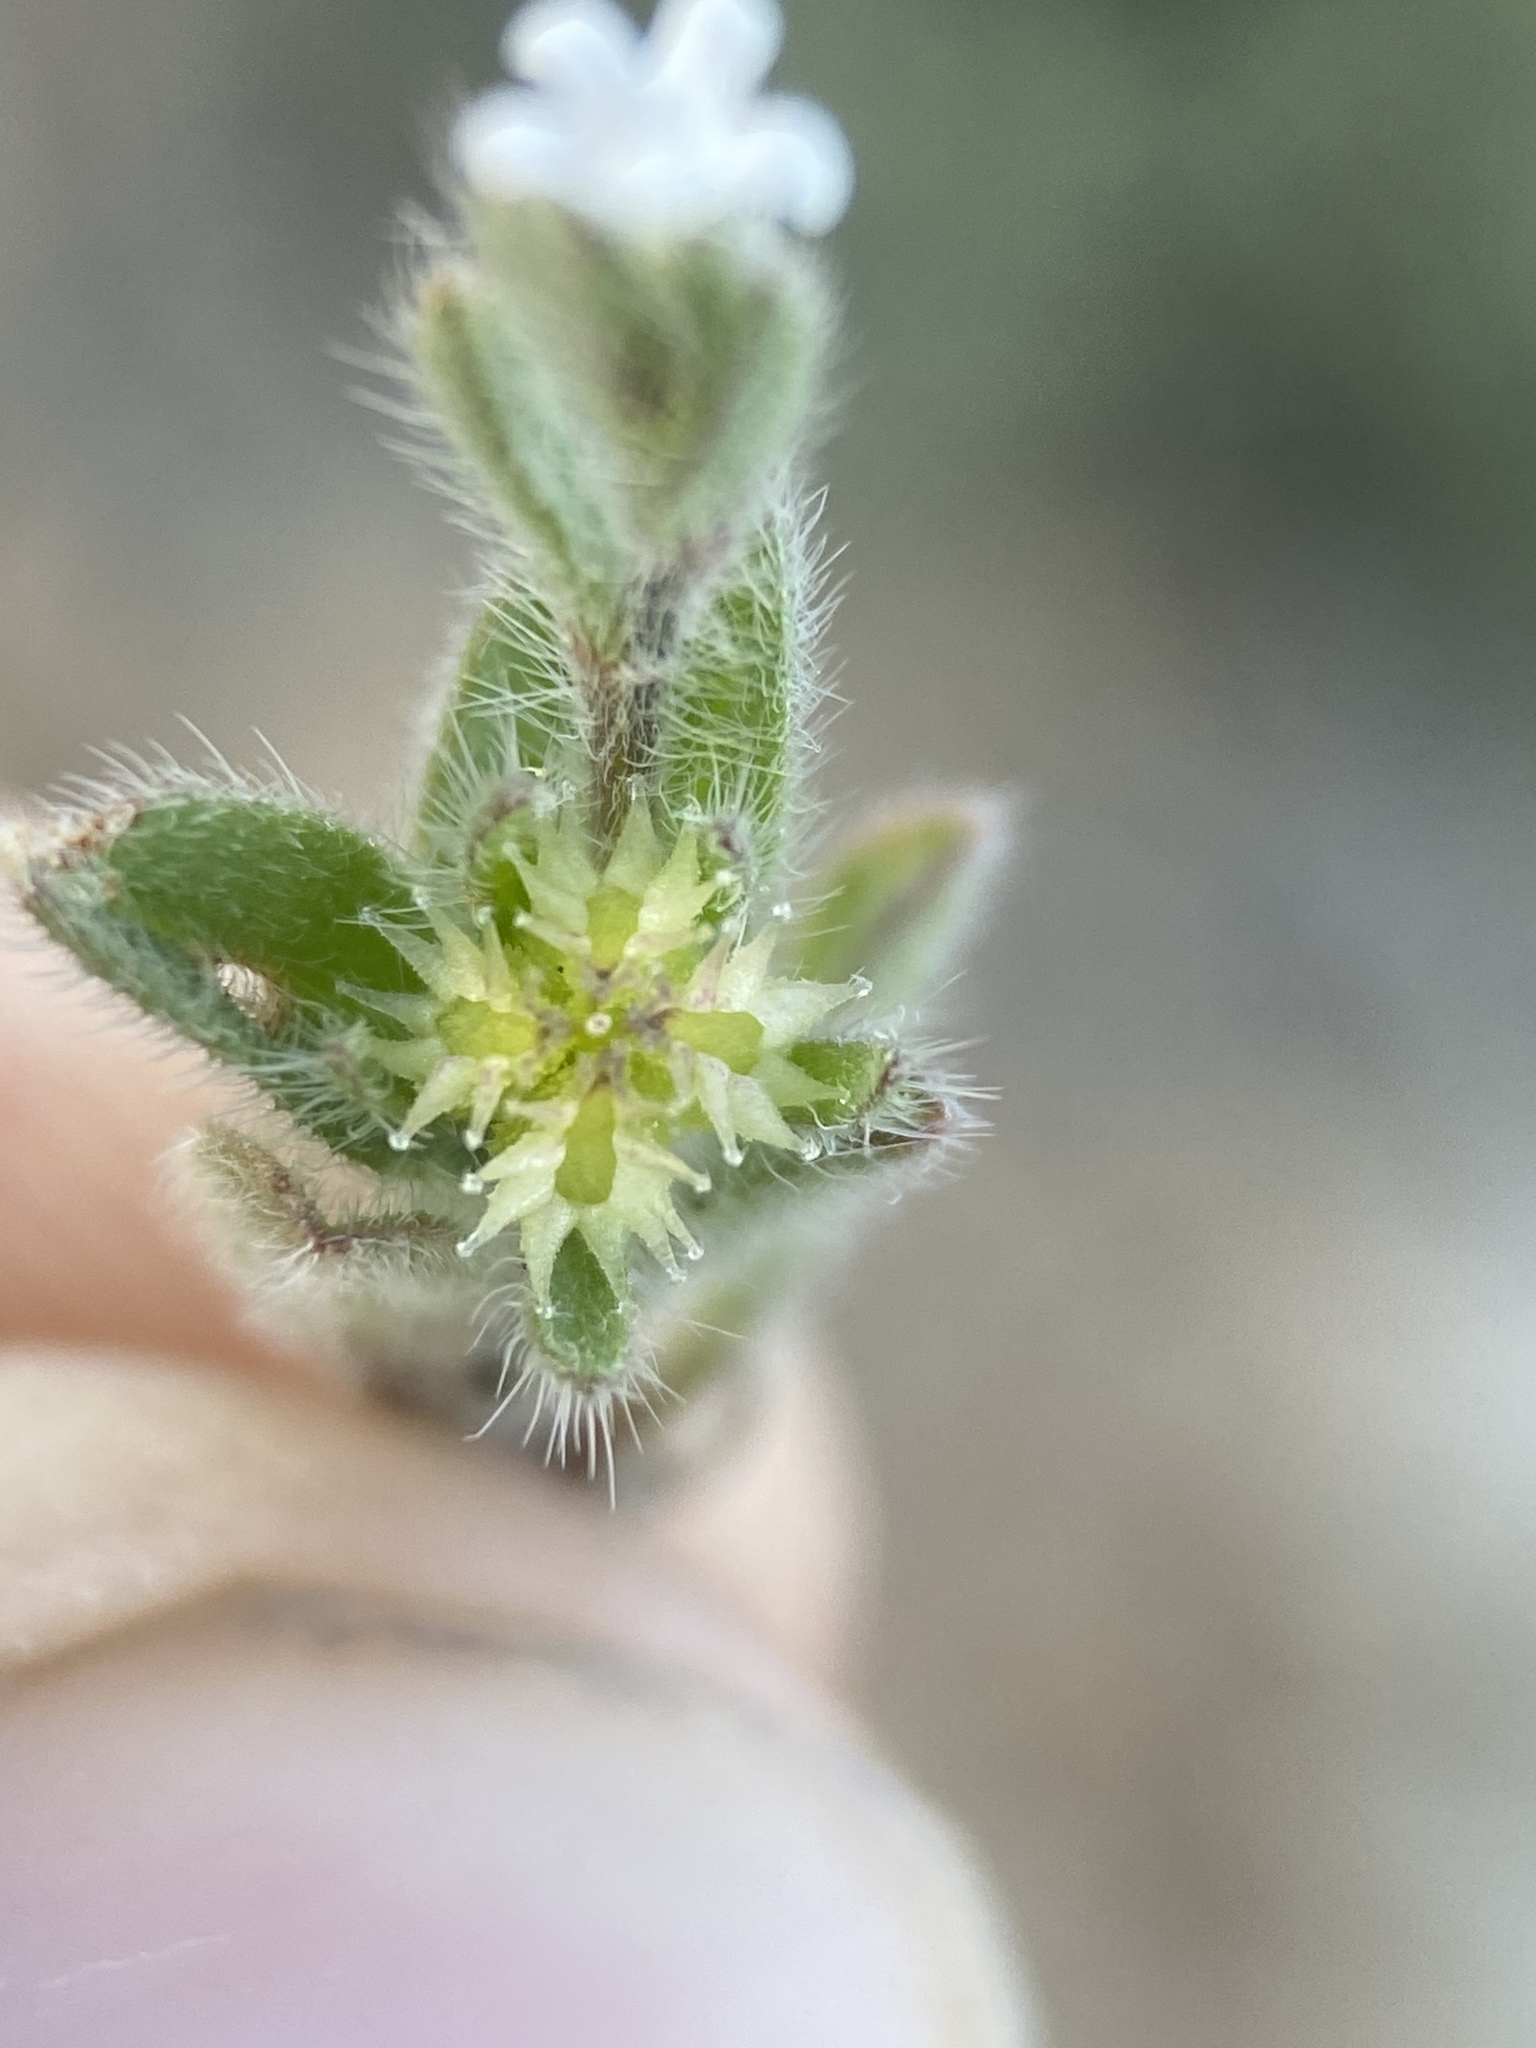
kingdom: Plantae
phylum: Tracheophyta
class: Magnoliopsida
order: Boraginales
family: Boraginaceae
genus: Lappula
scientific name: Lappula occidentalis
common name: Western stickseed
